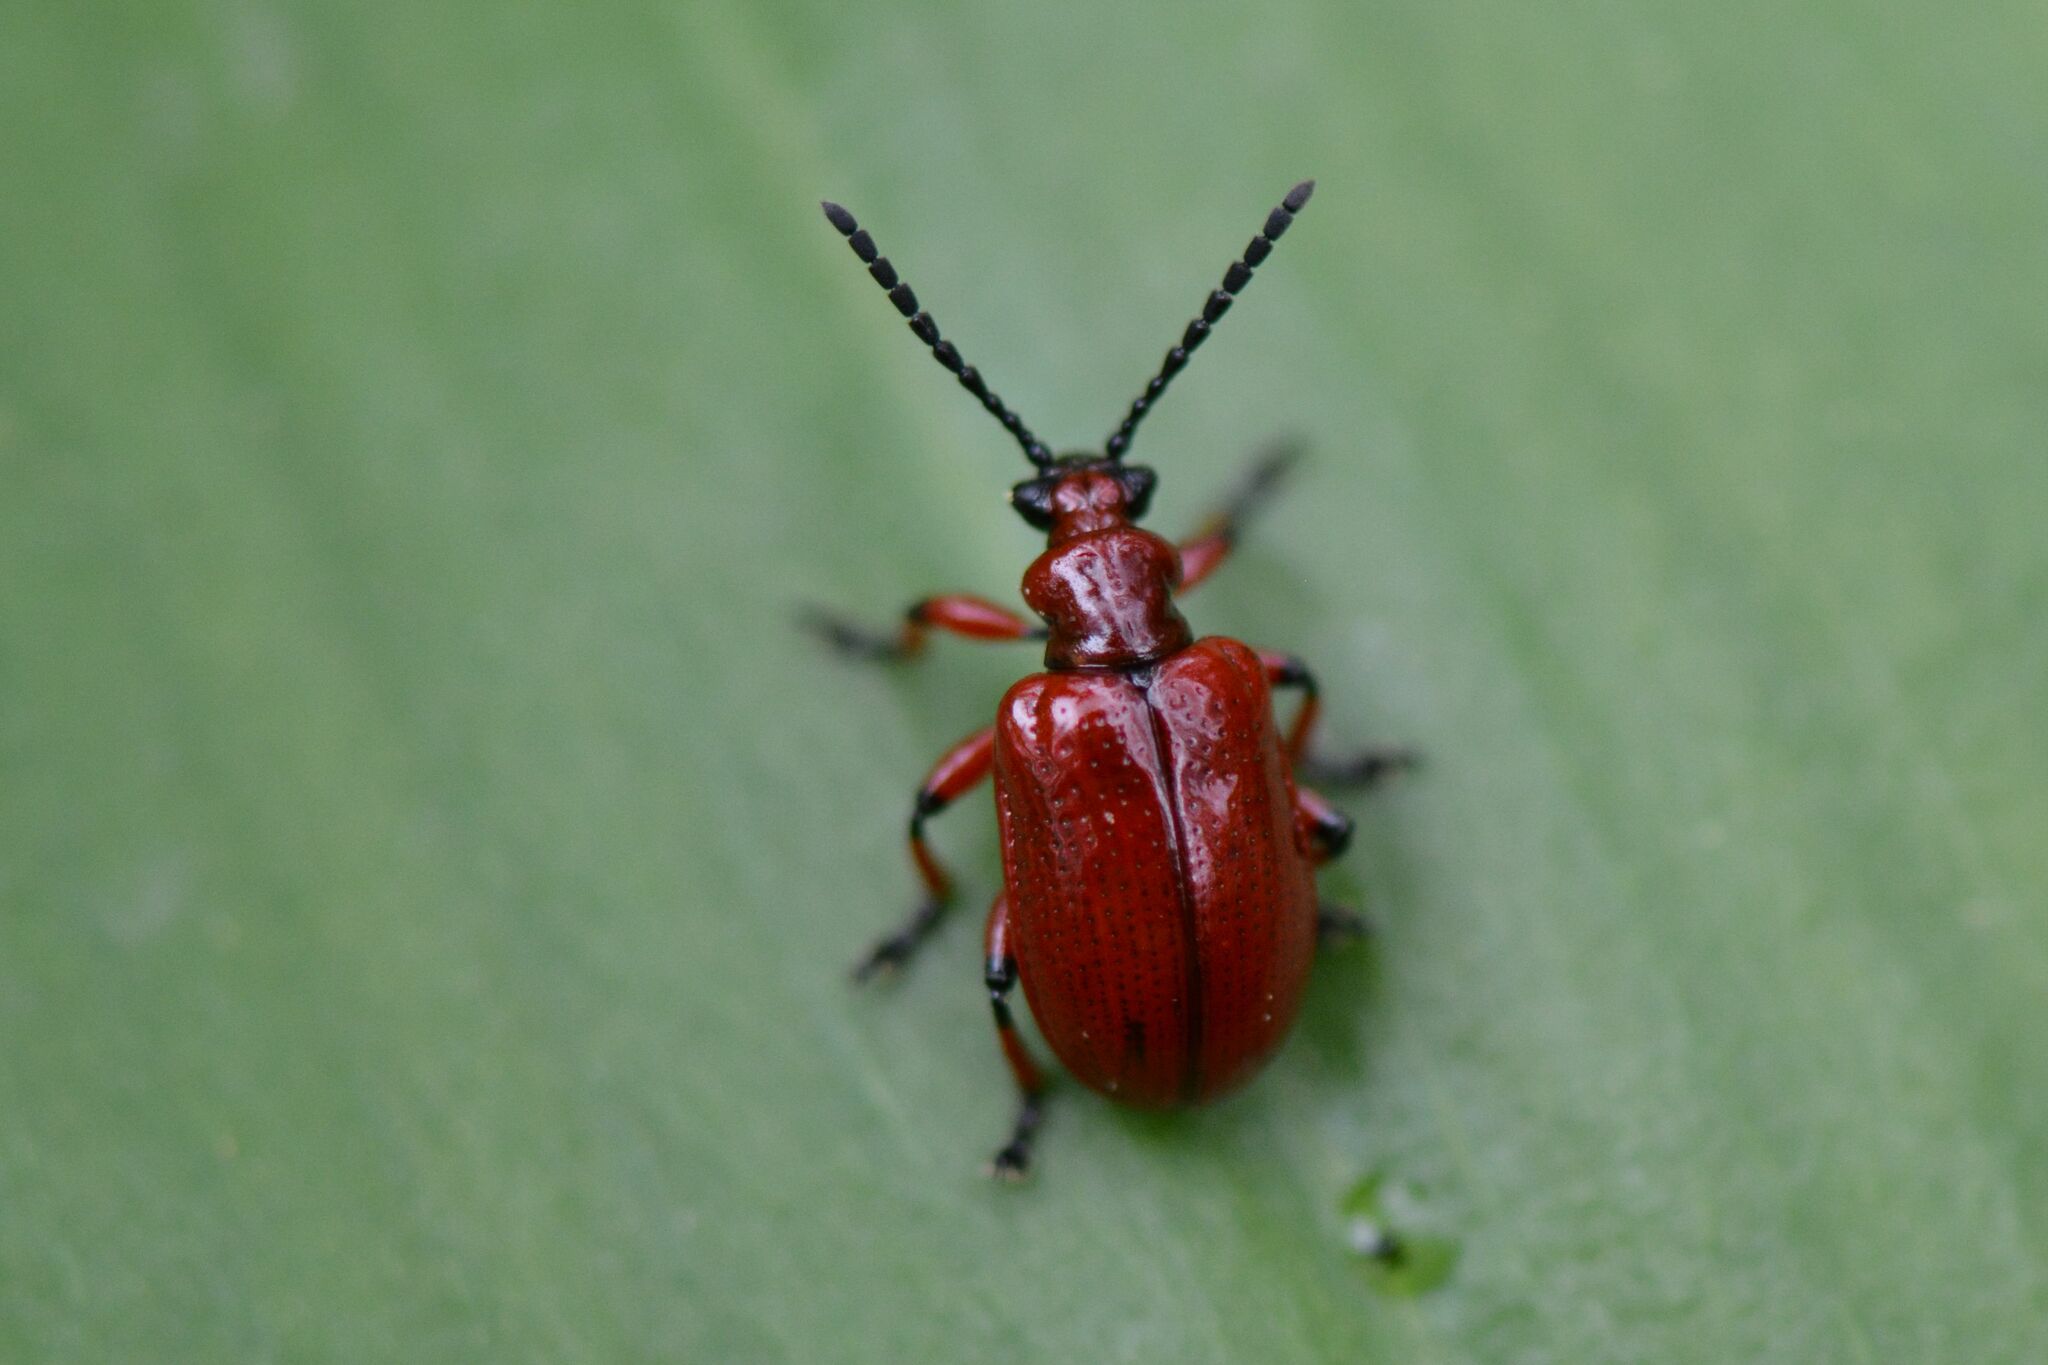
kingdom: Animalia
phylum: Arthropoda
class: Insecta
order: Coleoptera
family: Chrysomelidae
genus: Lilioceris
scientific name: Lilioceris merdigera
